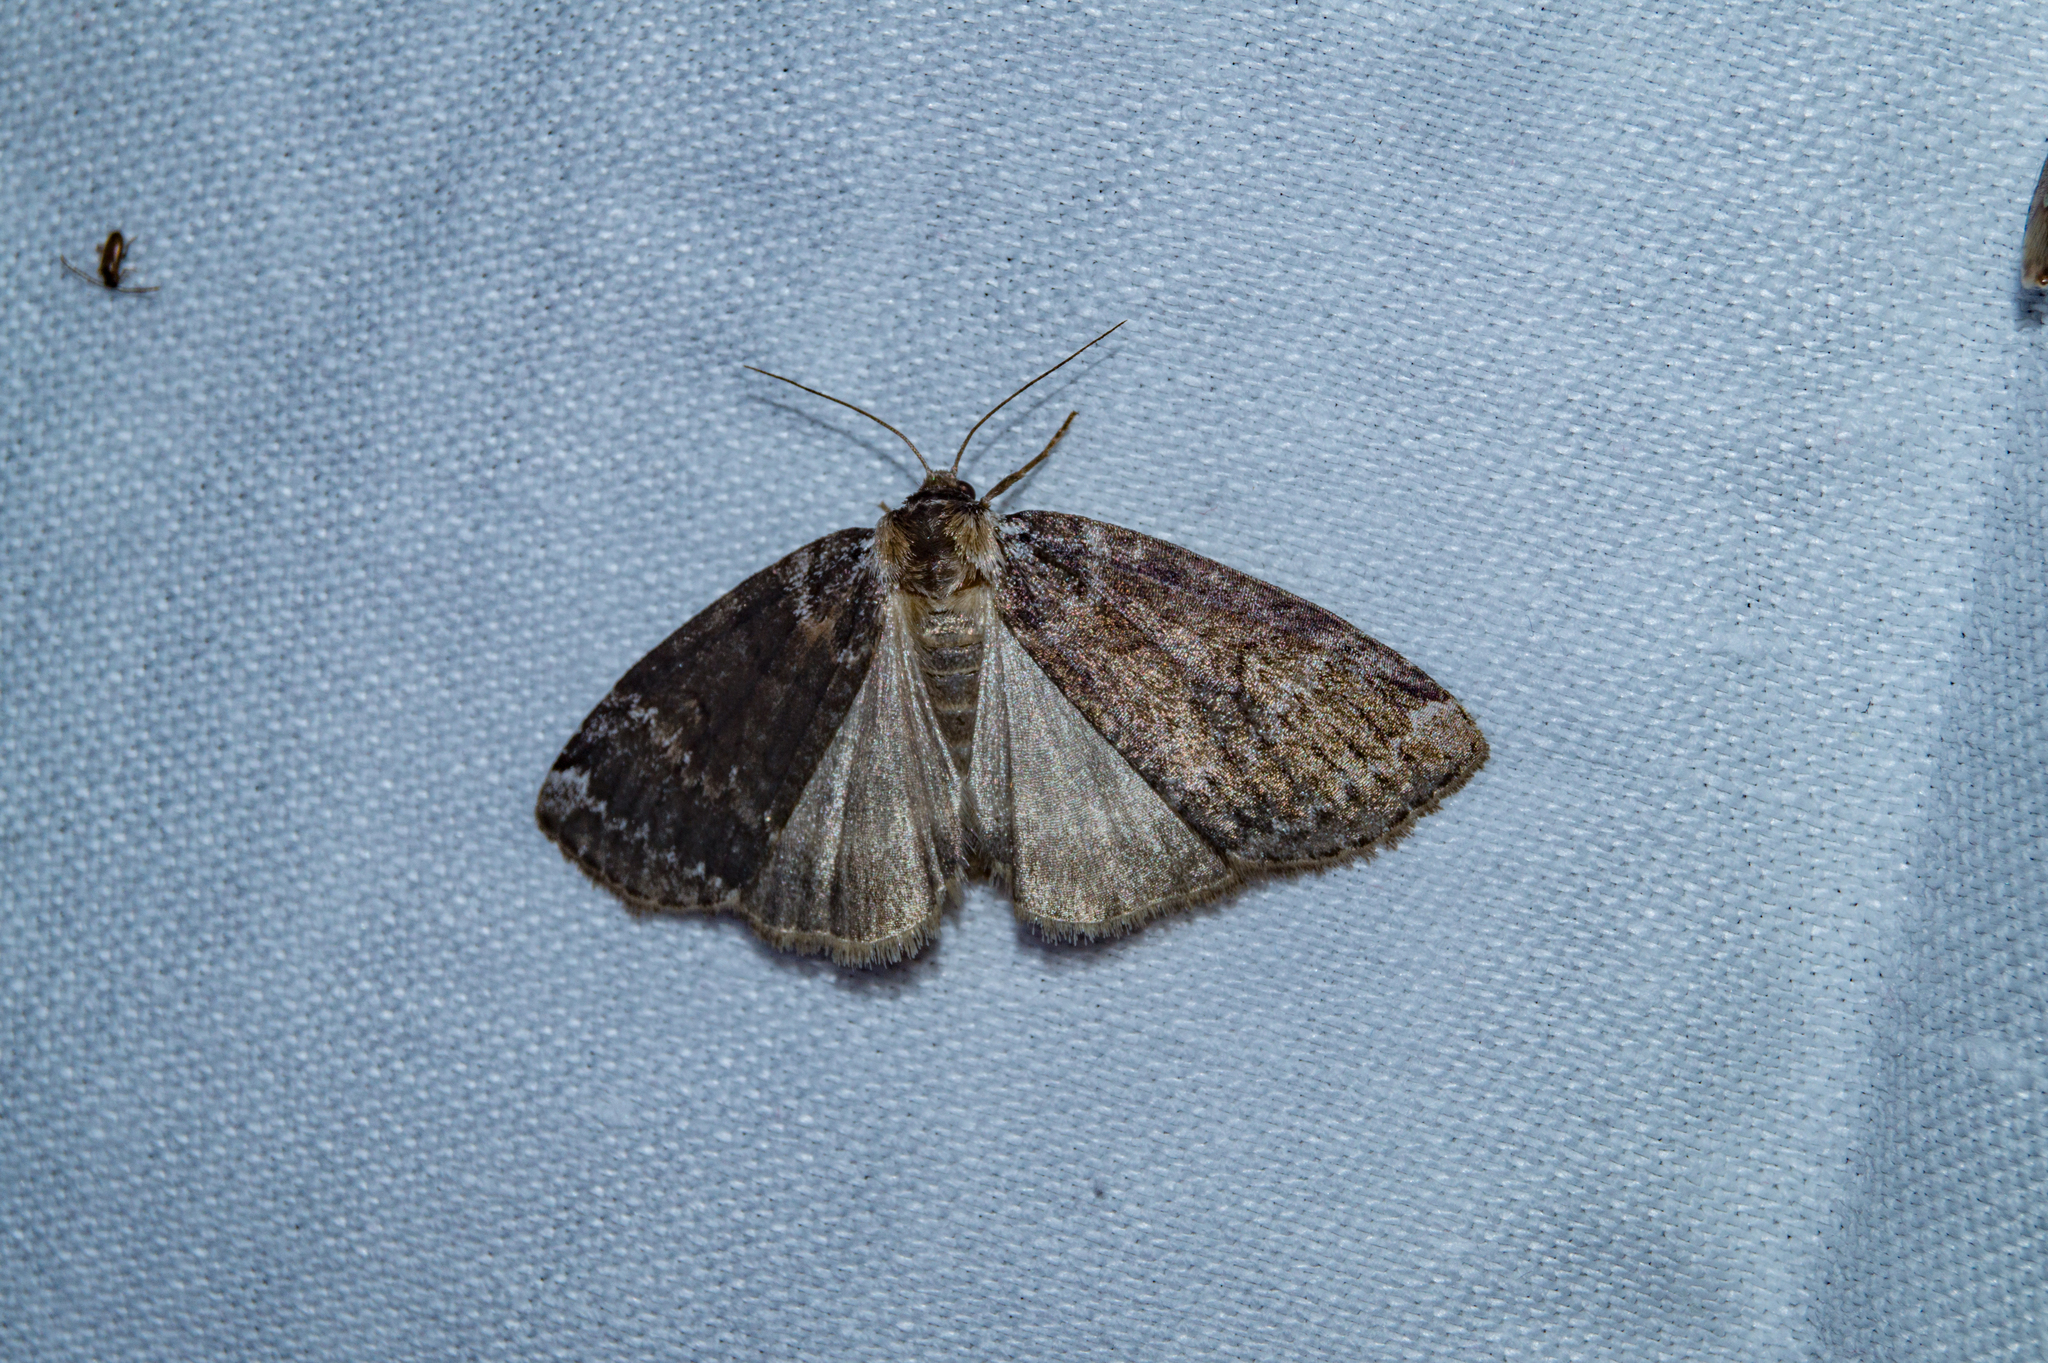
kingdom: Animalia
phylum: Arthropoda
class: Insecta
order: Lepidoptera
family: Drepanidae
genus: Tetheella
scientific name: Tetheella fluctuosa
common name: Satin lutestring
